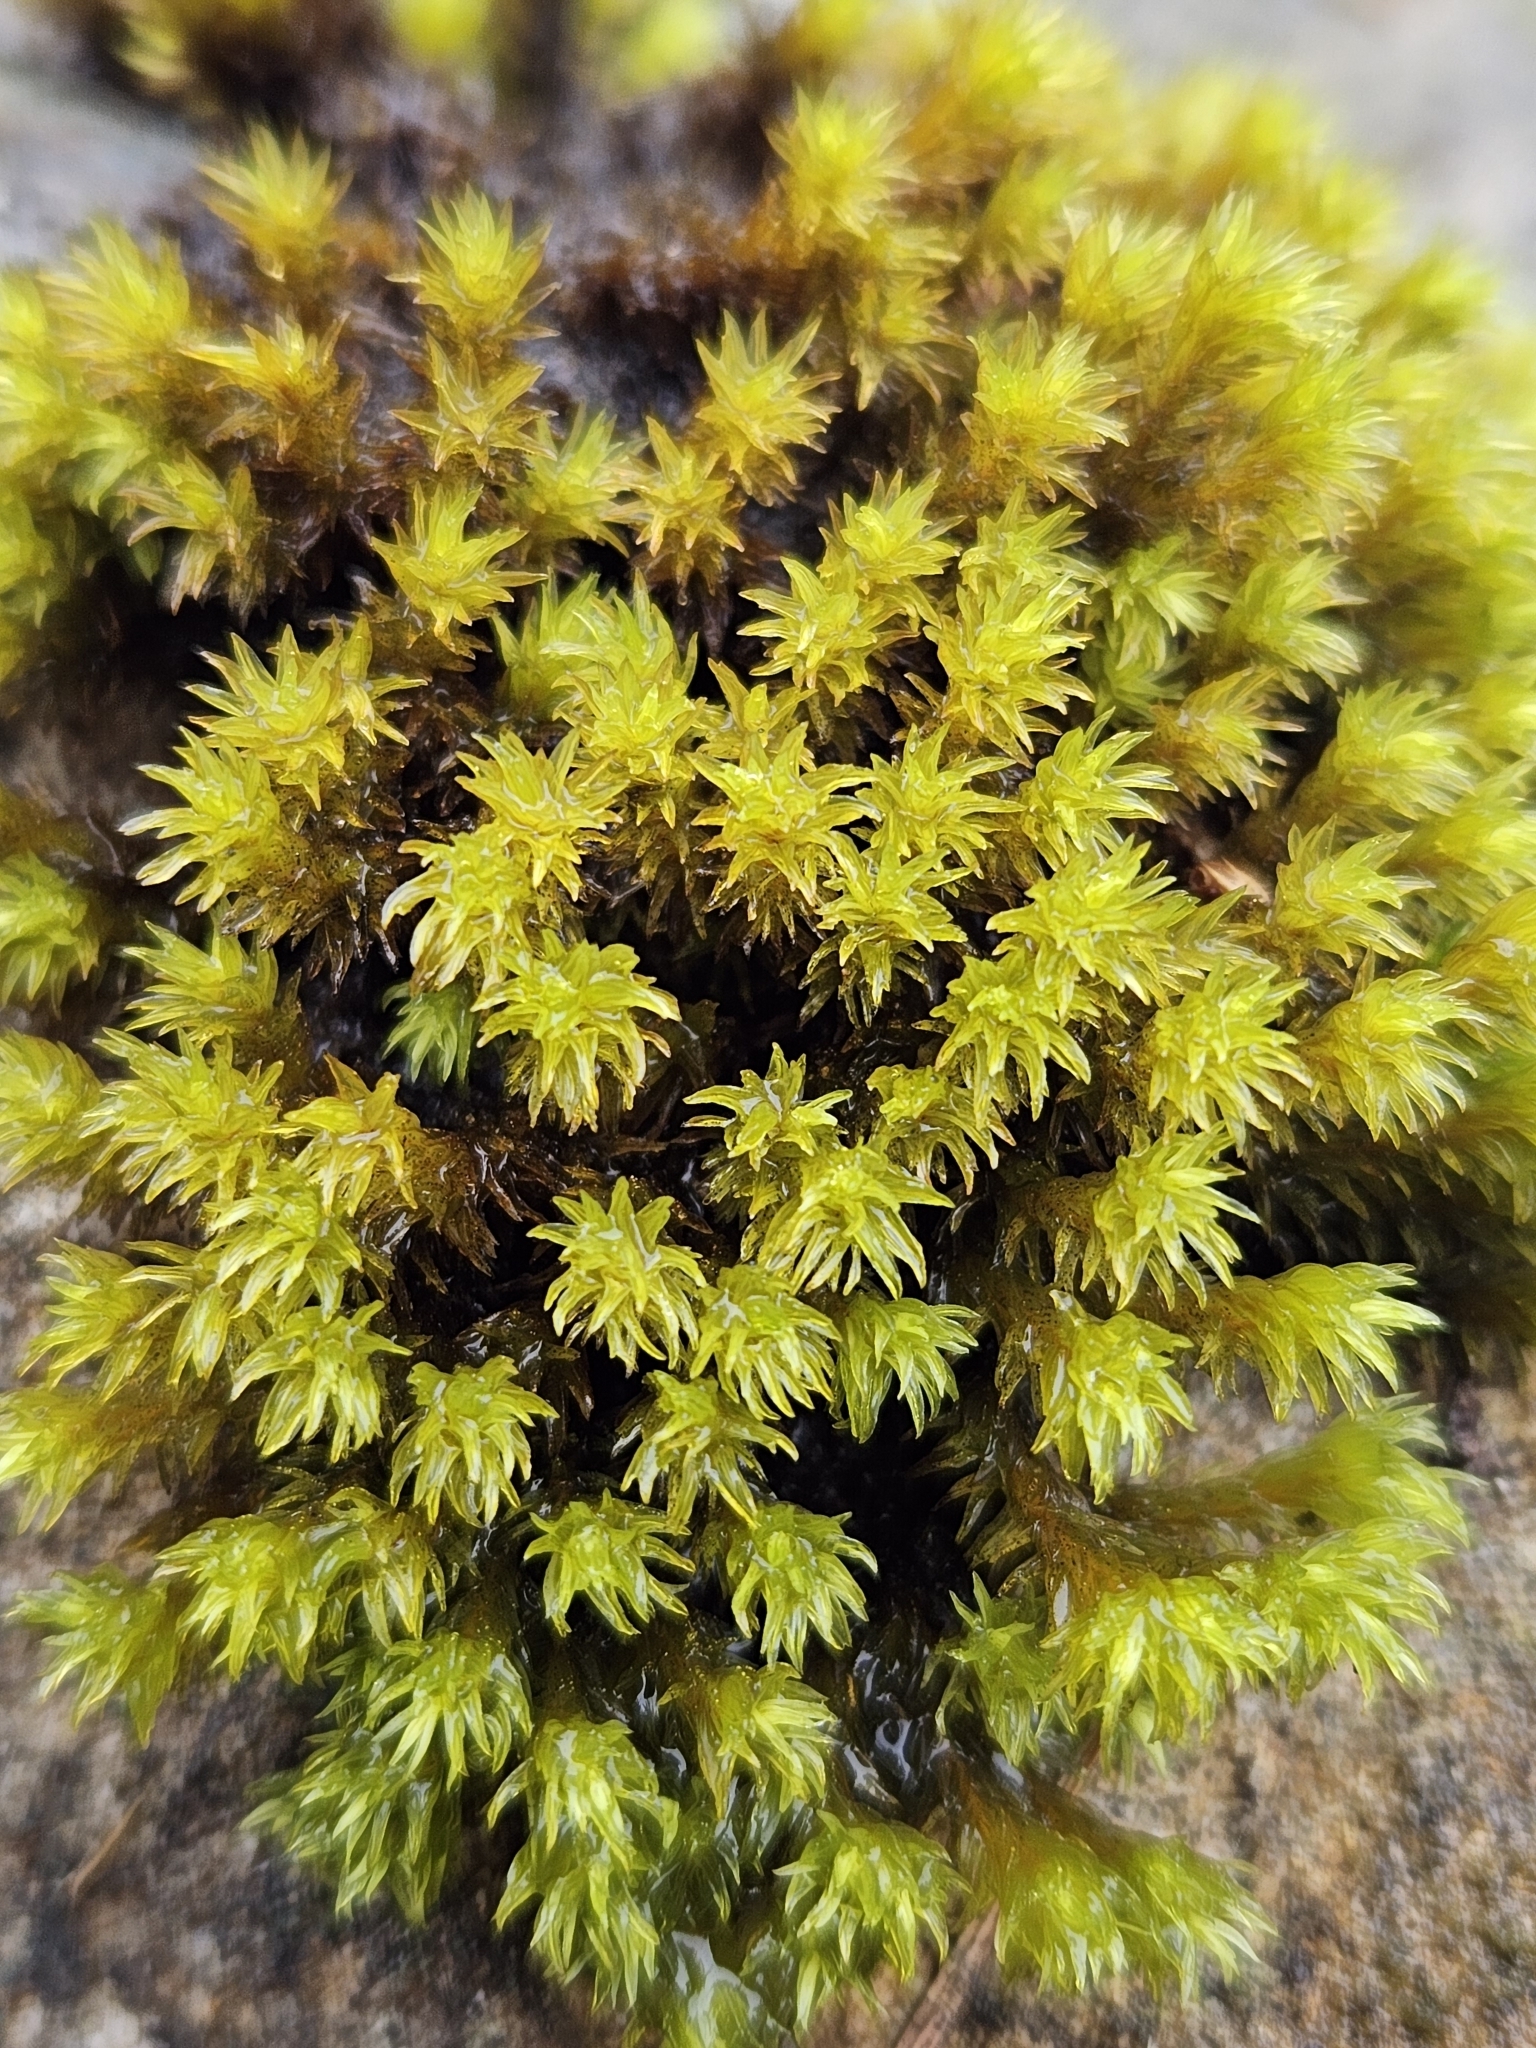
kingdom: Plantae
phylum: Bryophyta
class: Bryopsida
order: Grimmiales
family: Grimmiaceae
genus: Codriophorus
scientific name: Codriophorus acicularis
